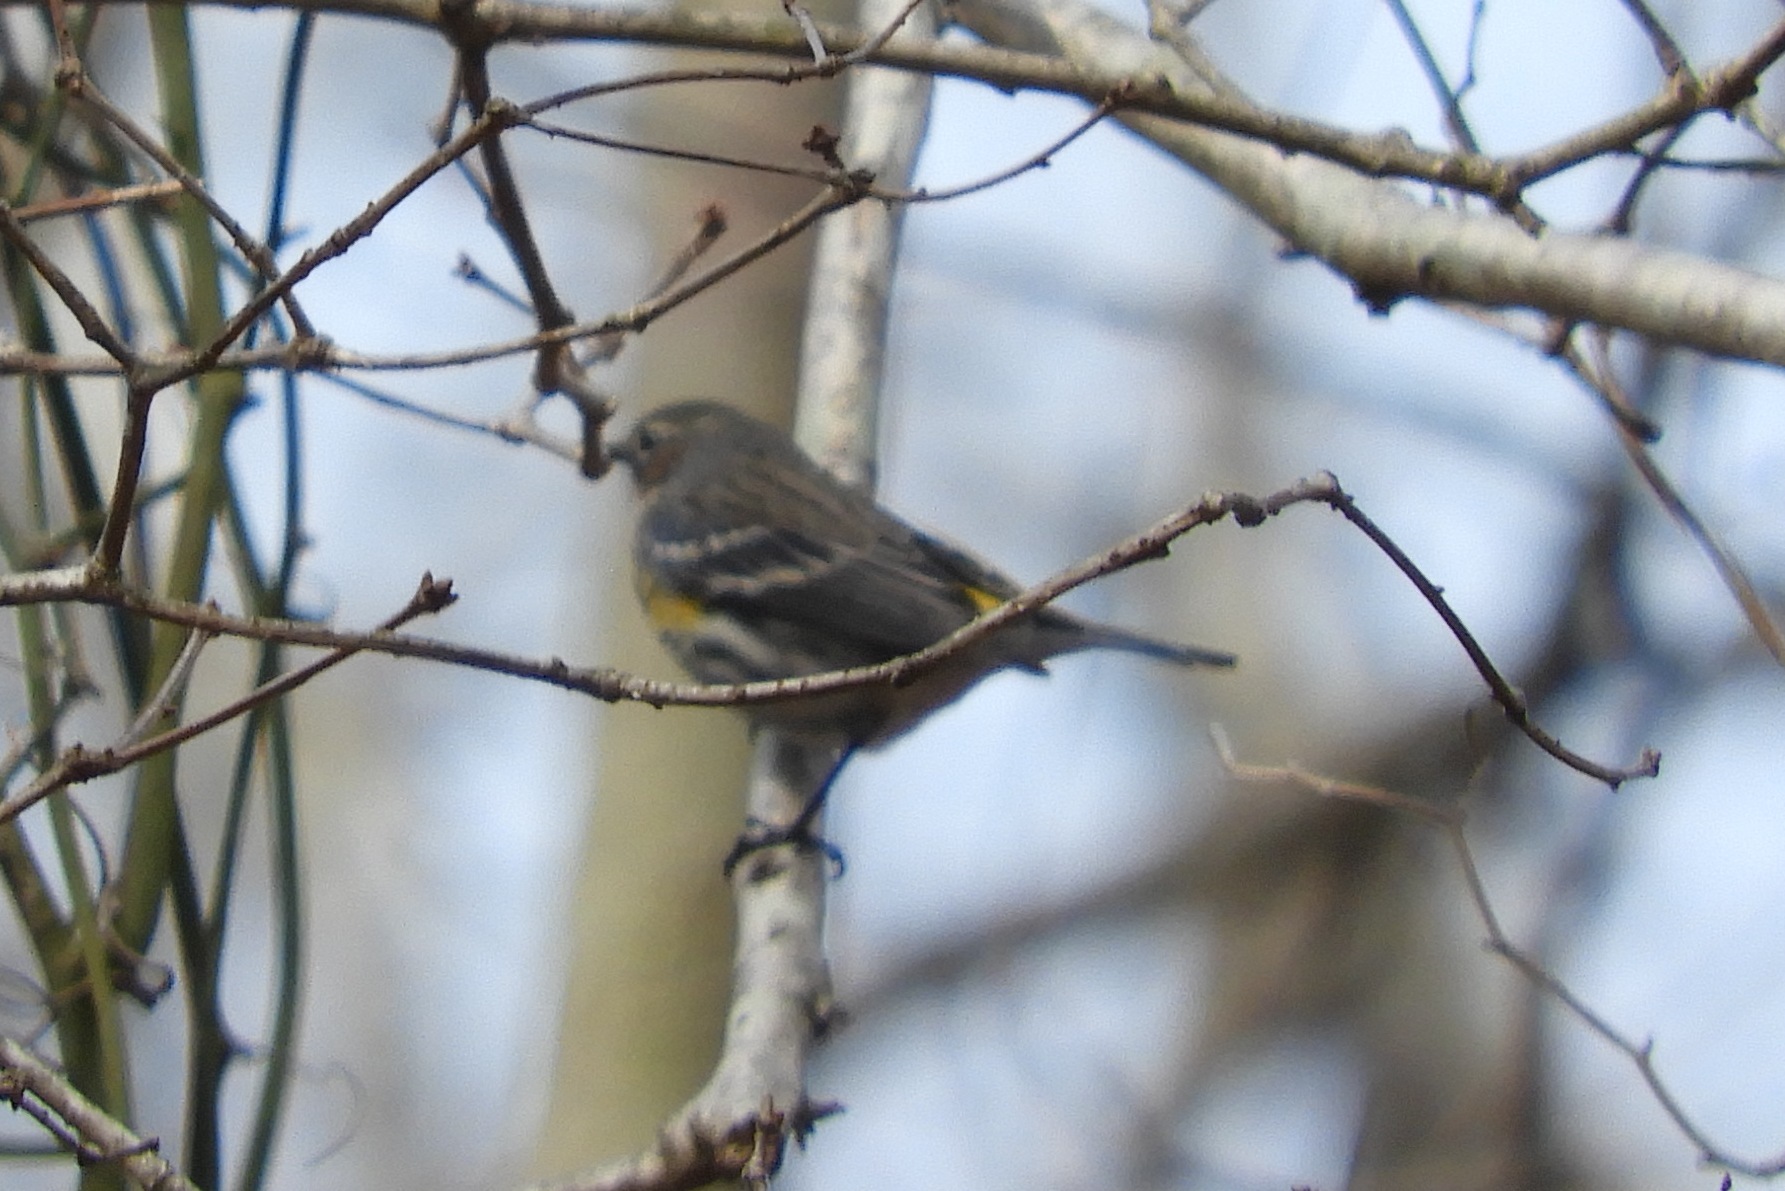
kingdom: Animalia
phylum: Chordata
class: Aves
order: Passeriformes
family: Parulidae
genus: Setophaga
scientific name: Setophaga coronata
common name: Myrtle warbler
